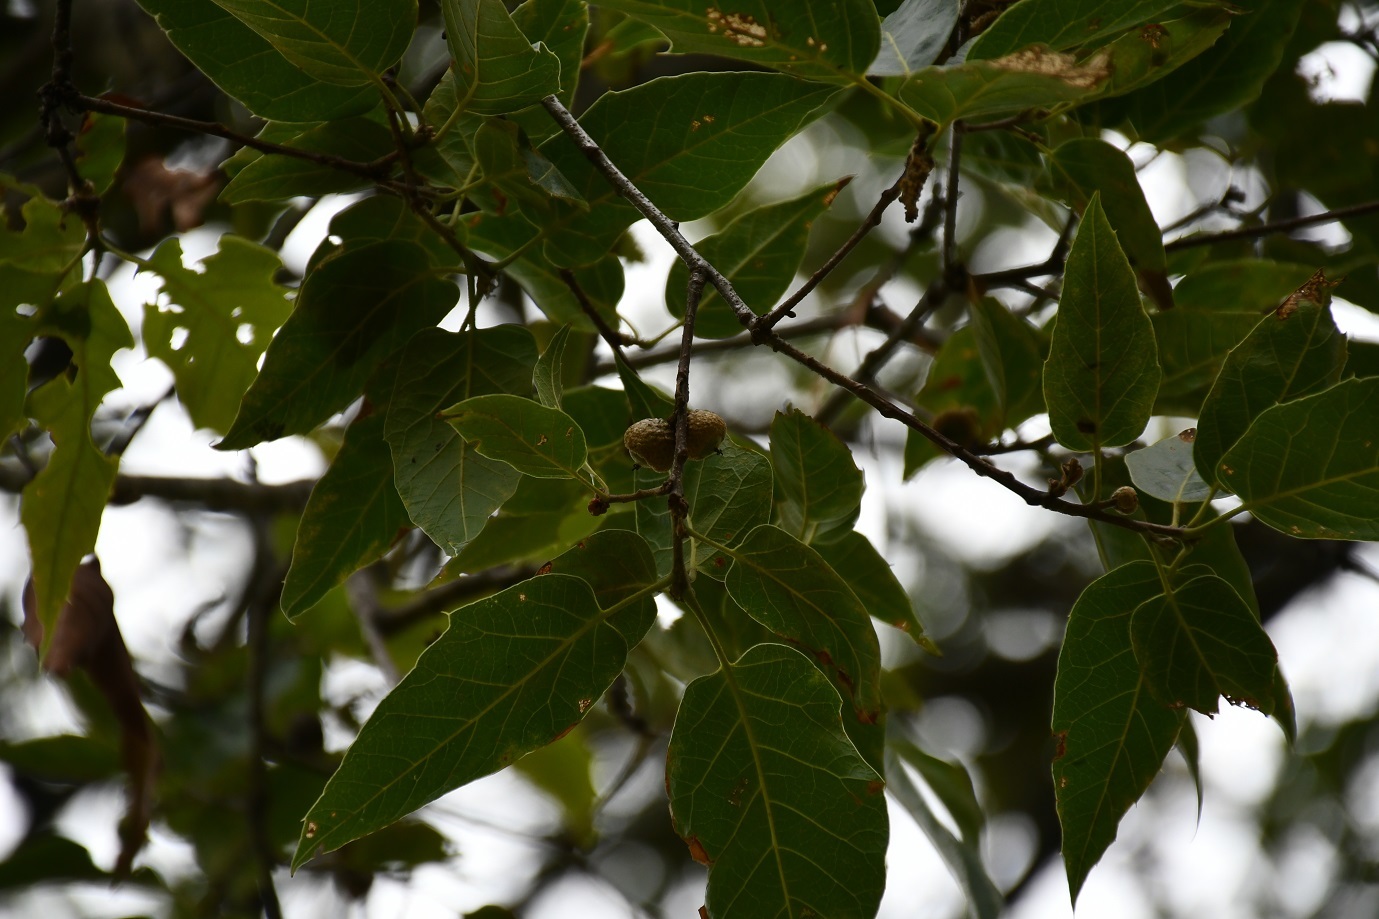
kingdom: Plantae
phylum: Tracheophyta
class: Magnoliopsida
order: Fagales
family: Fagaceae
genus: Quercus
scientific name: Quercus acutifolia
